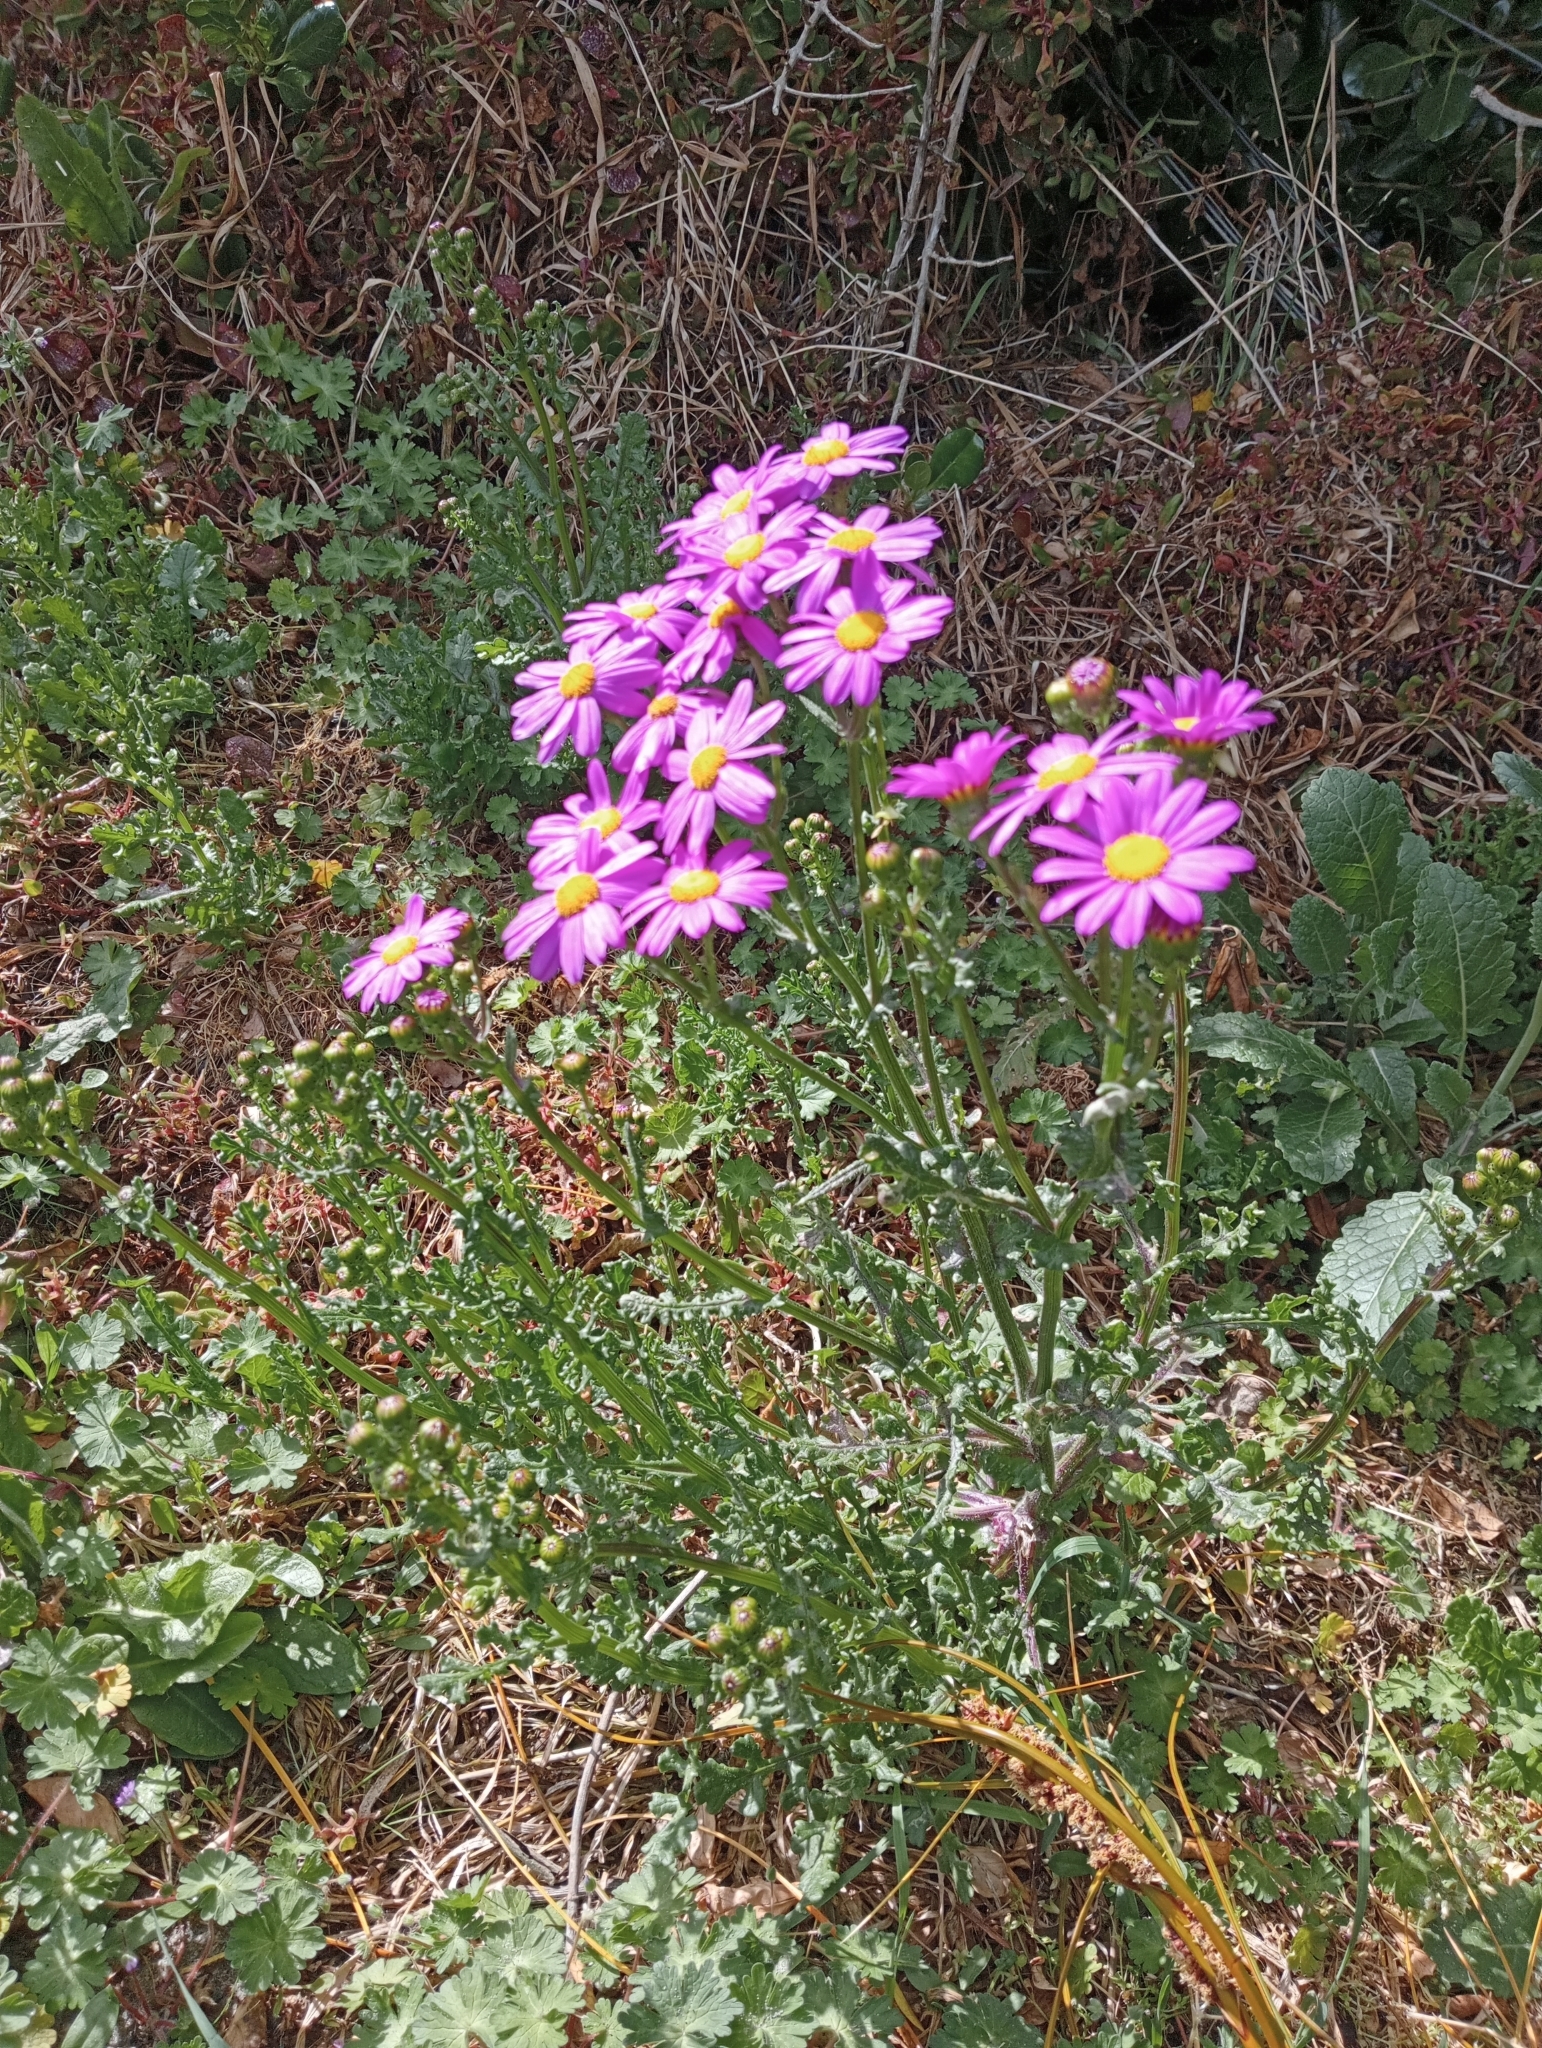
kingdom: Plantae
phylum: Tracheophyta
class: Magnoliopsida
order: Asterales
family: Asteraceae
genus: Senecio
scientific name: Senecio elegans
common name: Purple groundsel
